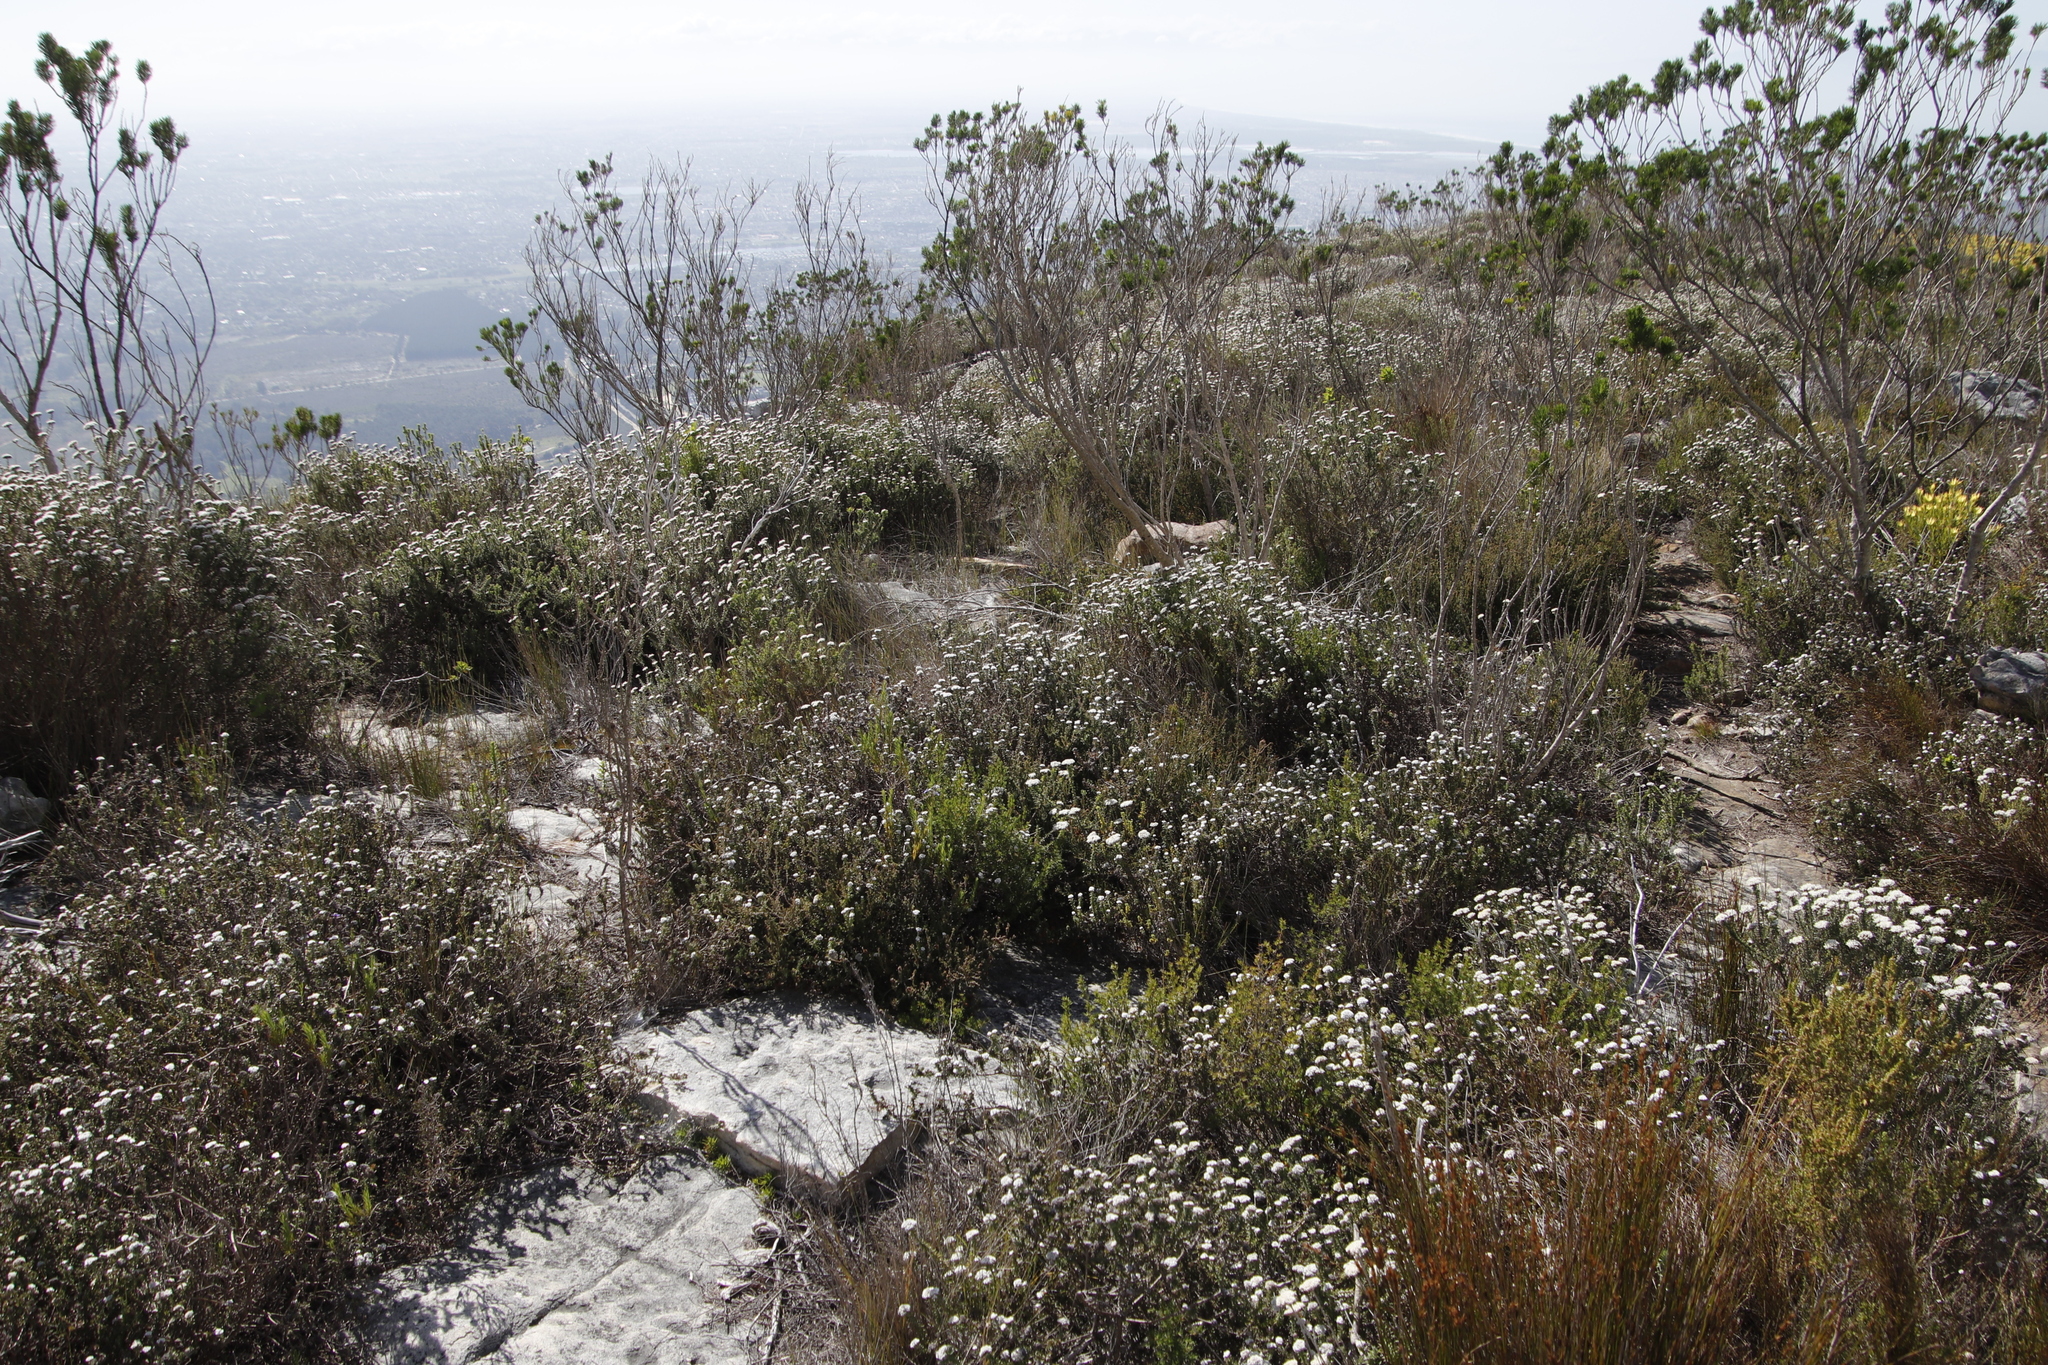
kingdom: Plantae
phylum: Tracheophyta
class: Magnoliopsida
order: Asterales
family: Asteraceae
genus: Metalasia
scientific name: Metalasia densa
